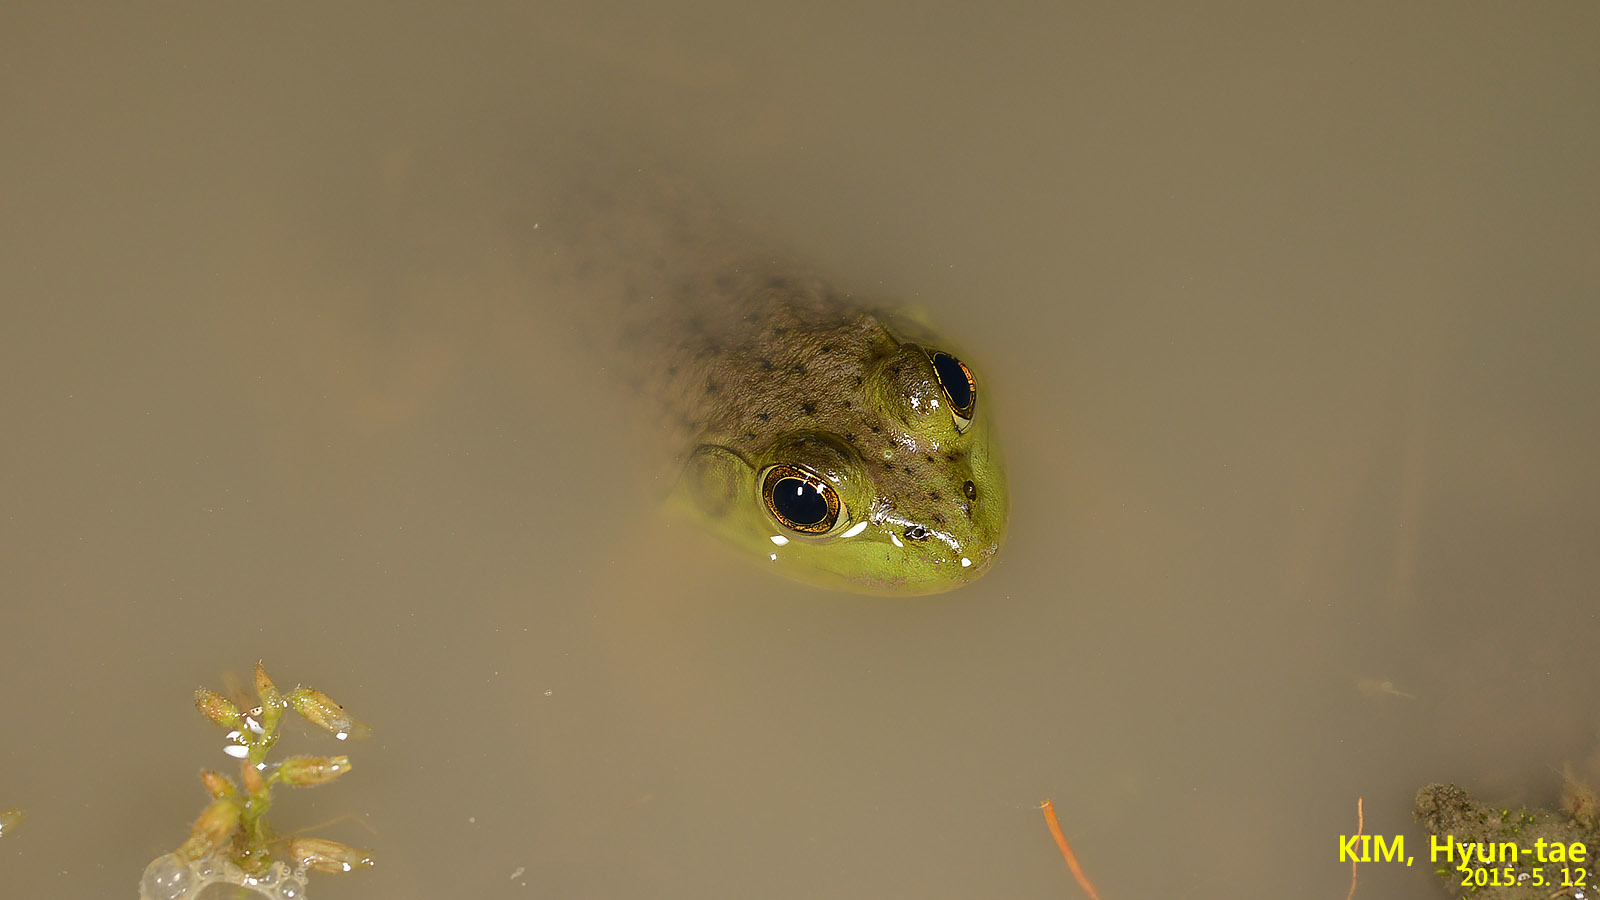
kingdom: Animalia
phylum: Chordata
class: Amphibia
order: Anura
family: Ranidae
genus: Lithobates
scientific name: Lithobates catesbeianus
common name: American bullfrog
